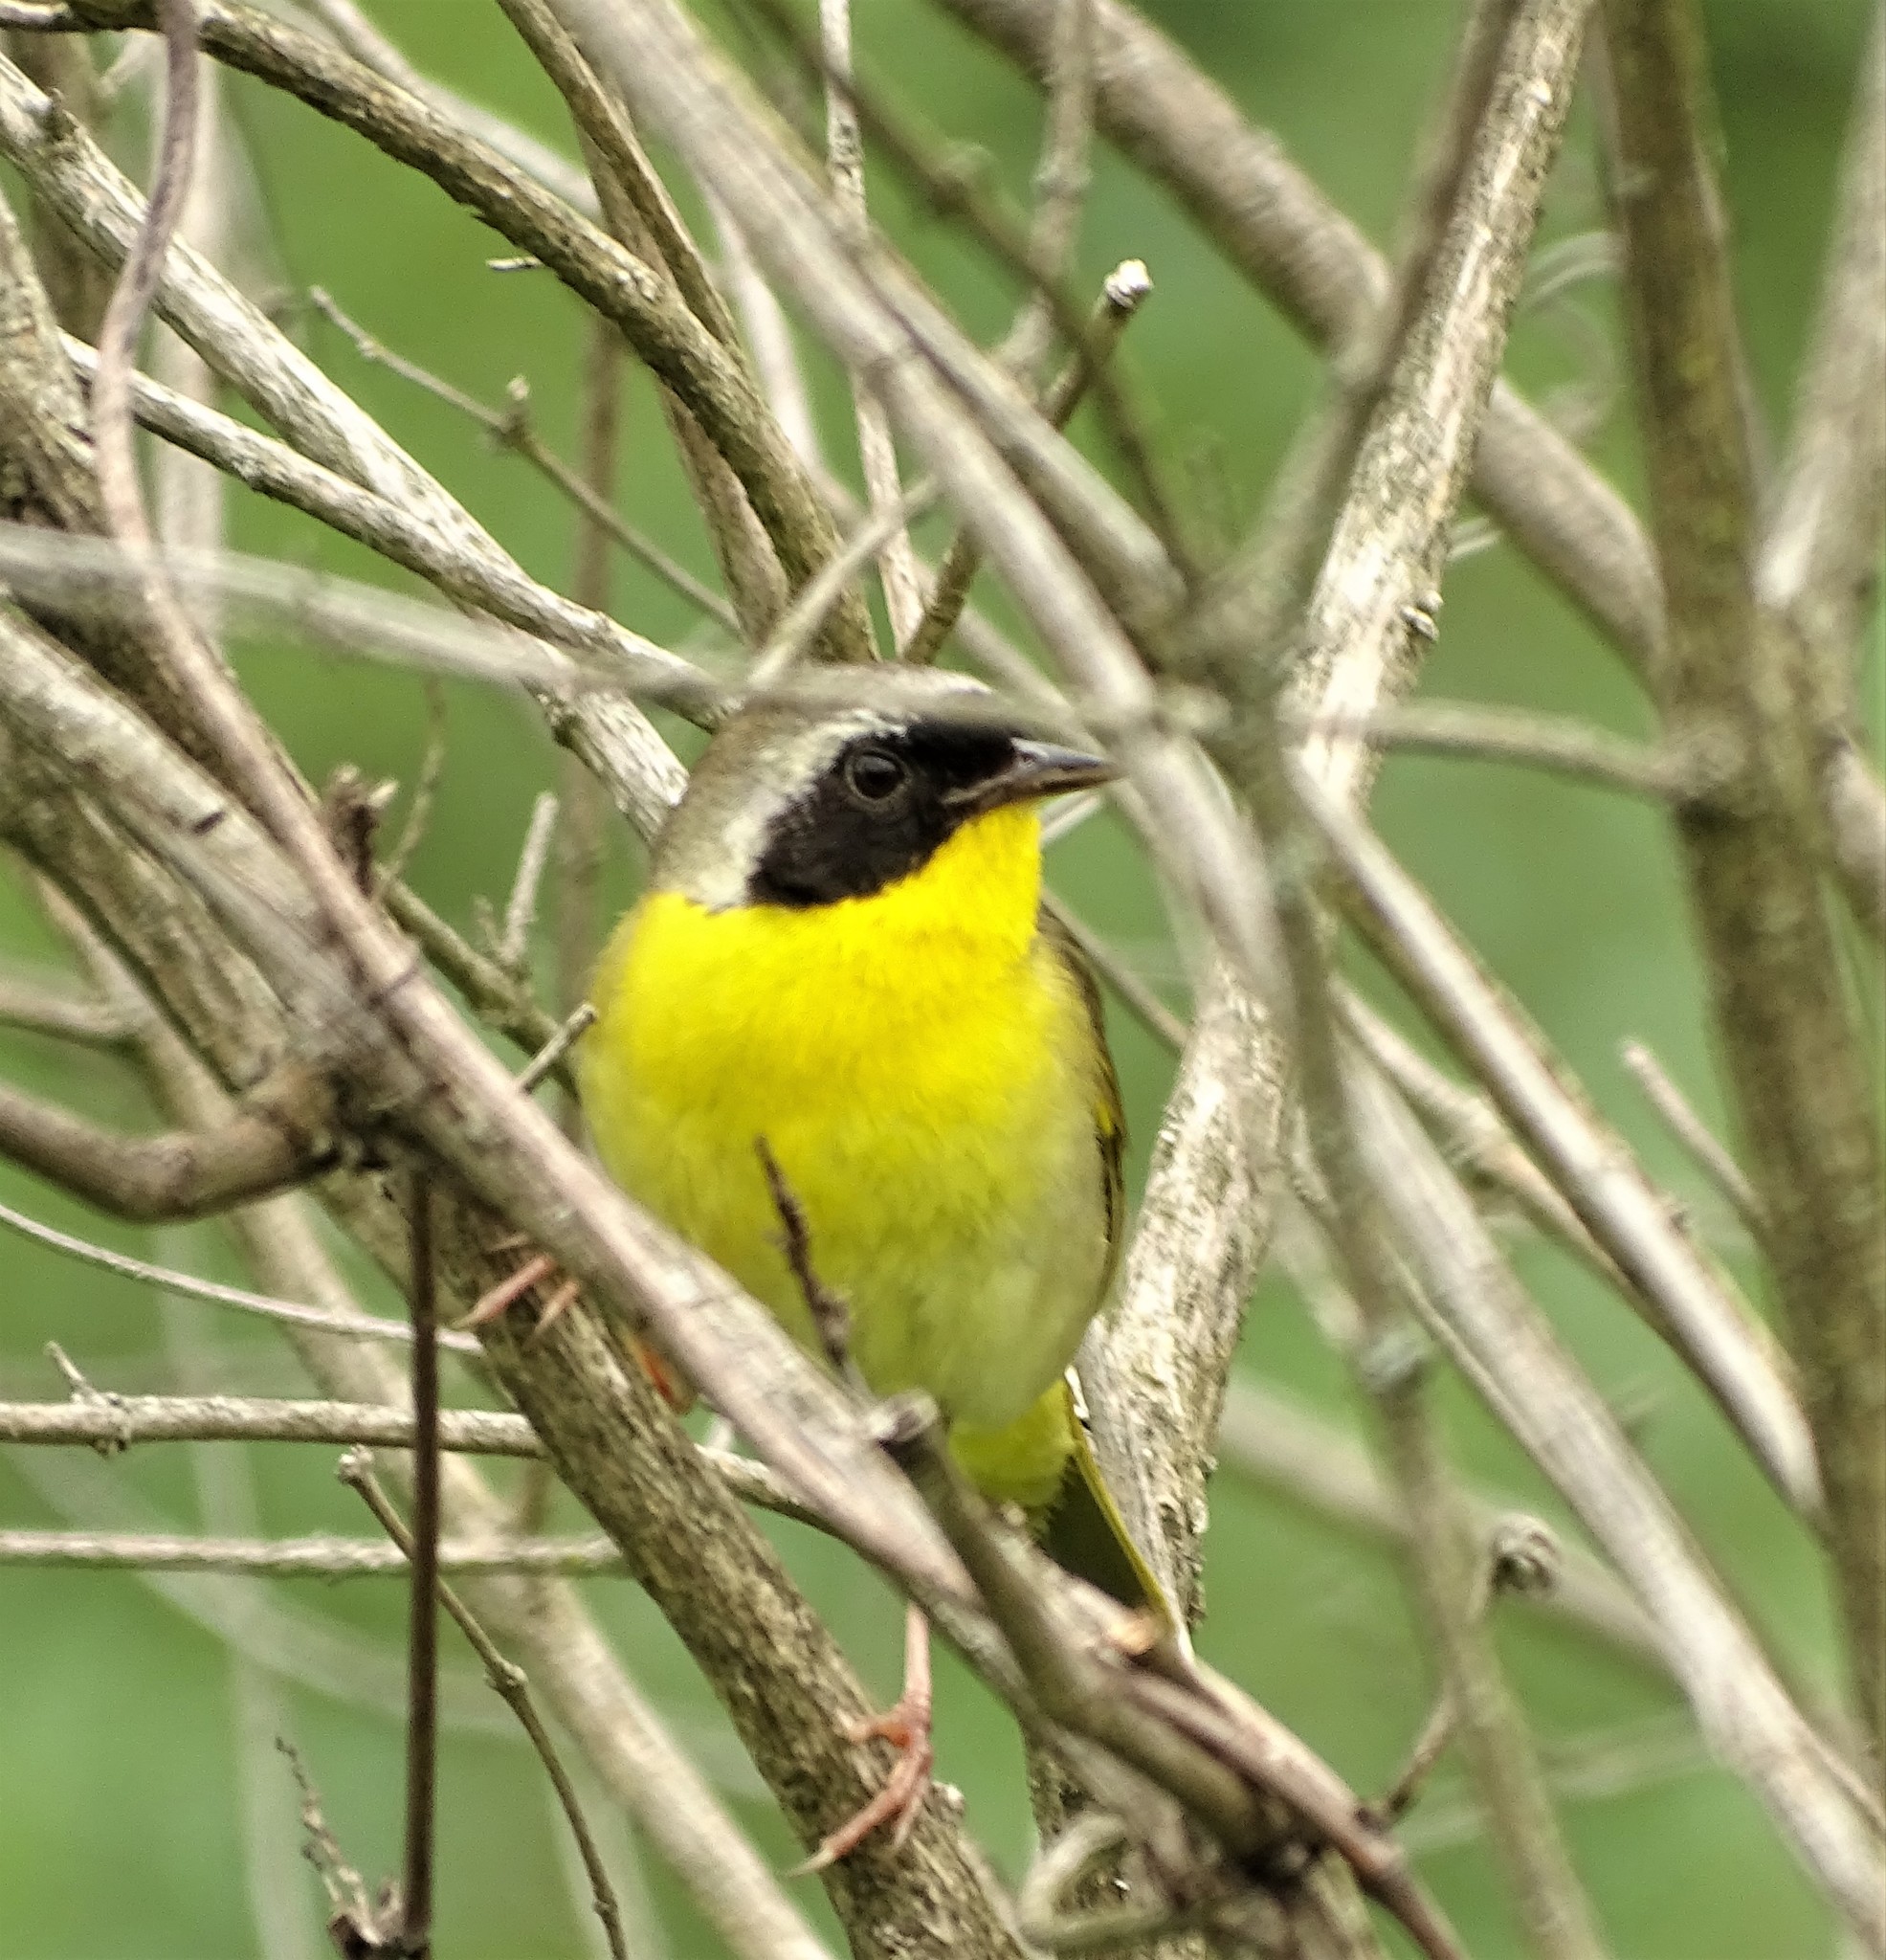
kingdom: Animalia
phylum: Chordata
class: Aves
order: Passeriformes
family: Parulidae
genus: Geothlypis
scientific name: Geothlypis trichas
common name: Common yellowthroat
